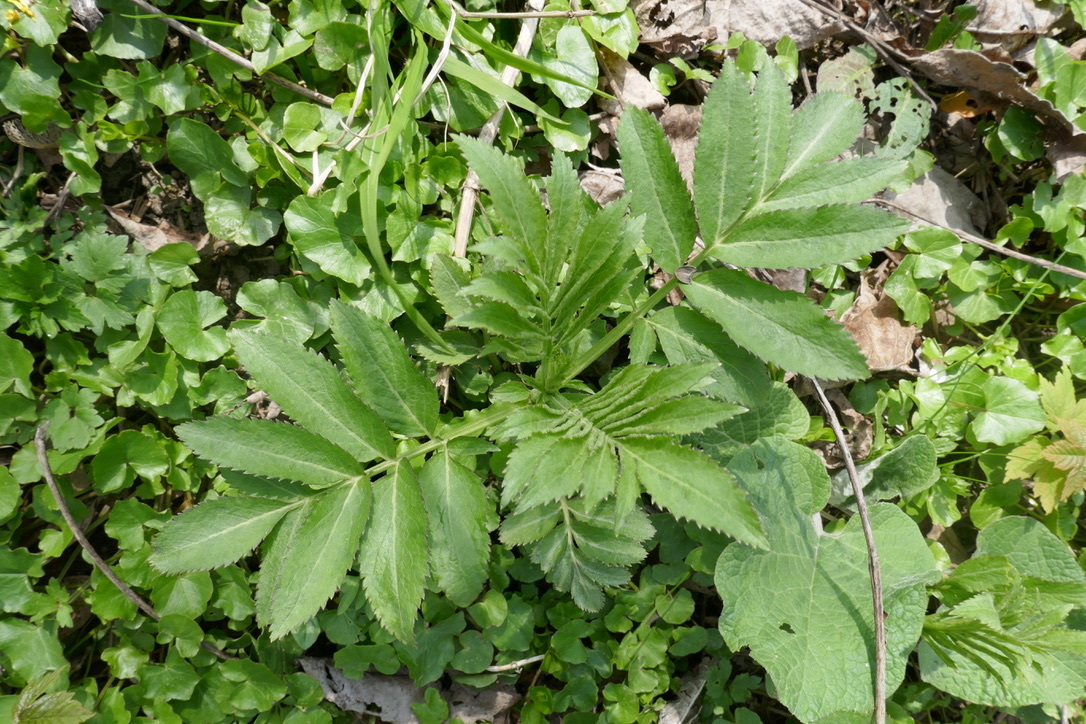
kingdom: Plantae
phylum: Tracheophyta
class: Magnoliopsida
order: Dipsacales
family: Viburnaceae
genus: Sambucus
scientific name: Sambucus nigra
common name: Elder
